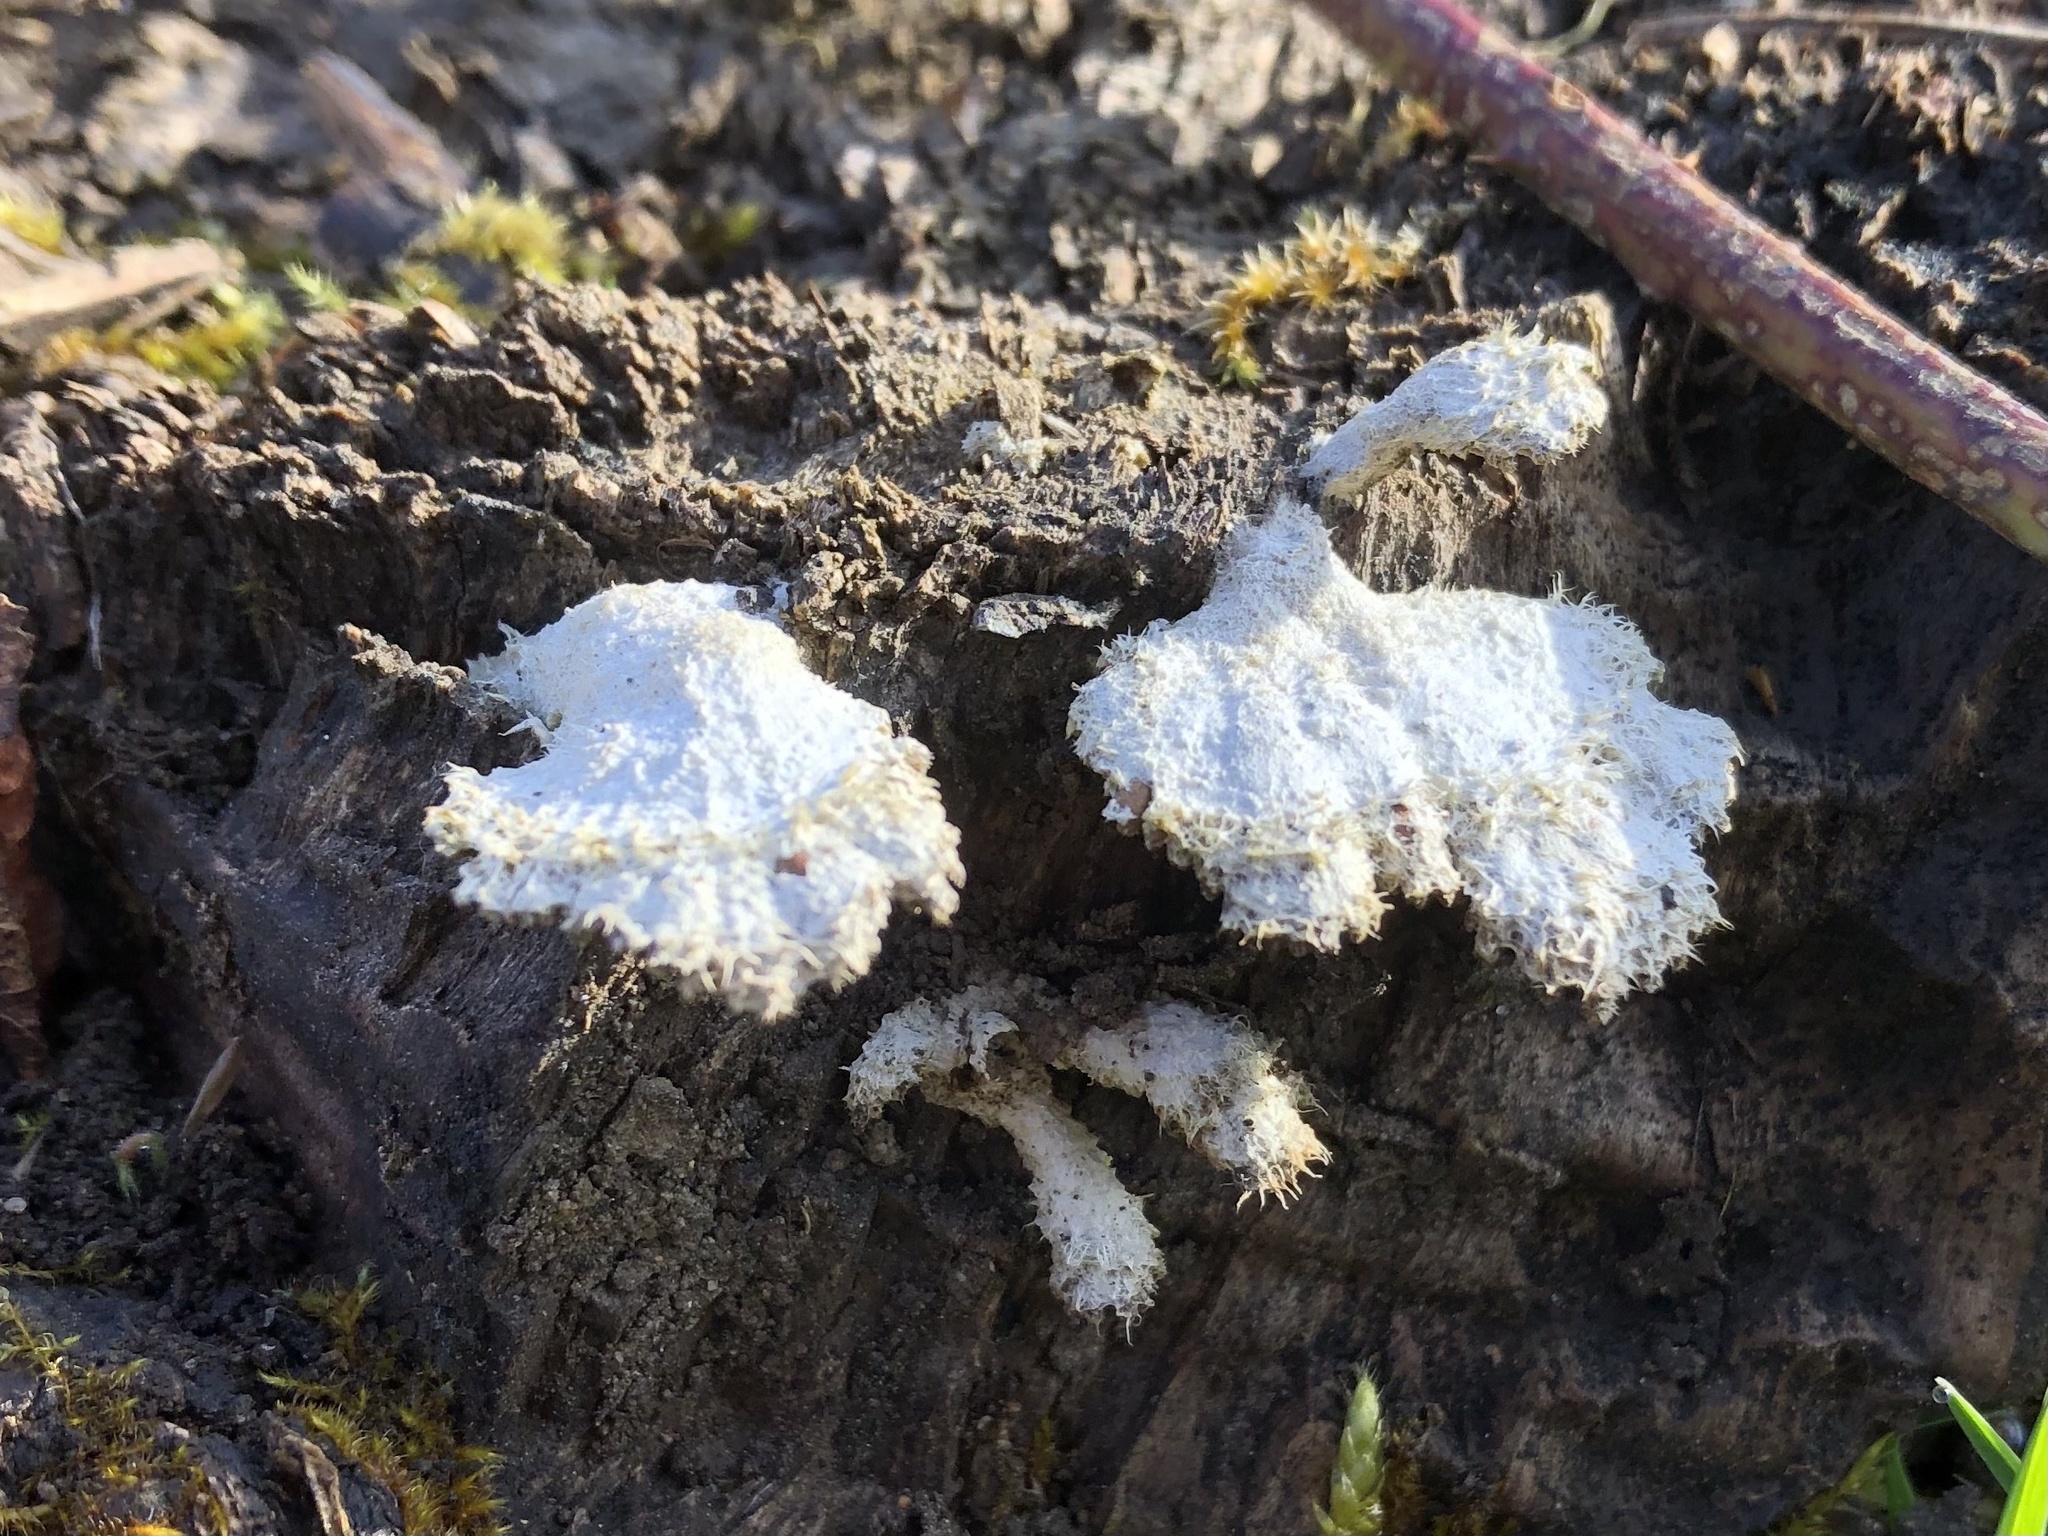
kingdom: Fungi
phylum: Basidiomycota
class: Agaricomycetes
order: Agaricales
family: Schizophyllaceae
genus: Schizophyllum
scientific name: Schizophyllum commune
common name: Common porecrust
